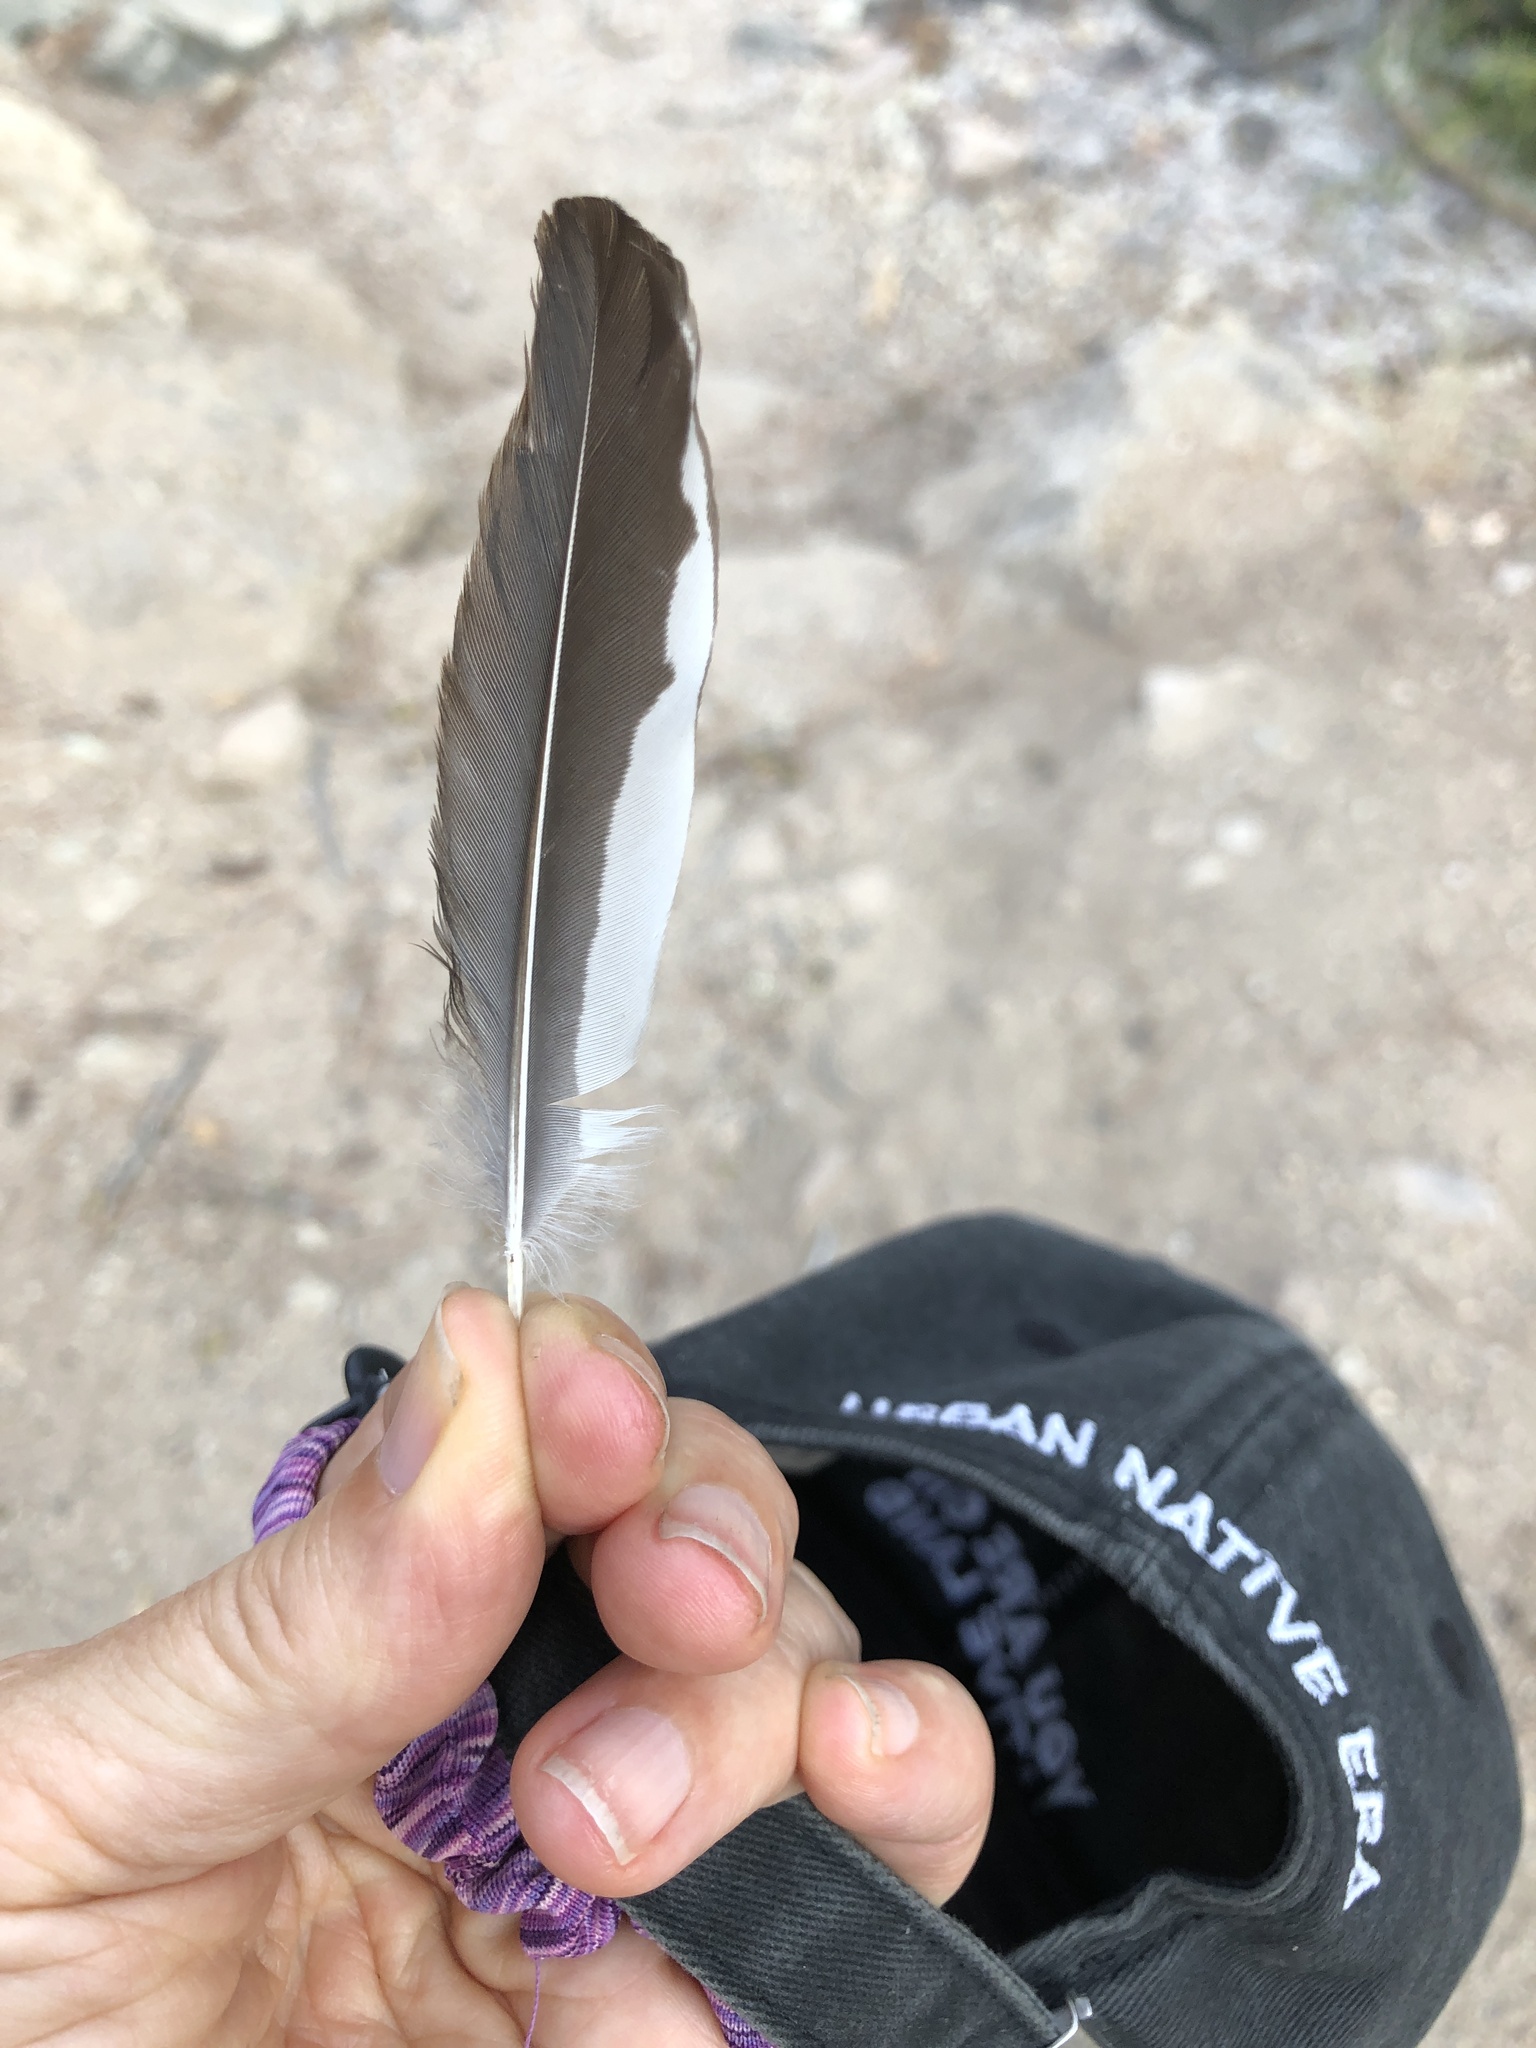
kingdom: Animalia
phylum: Chordata
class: Aves
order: Piciformes
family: Picidae
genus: Melanerpes
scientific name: Melanerpes formicivorus
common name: Acorn woodpecker
